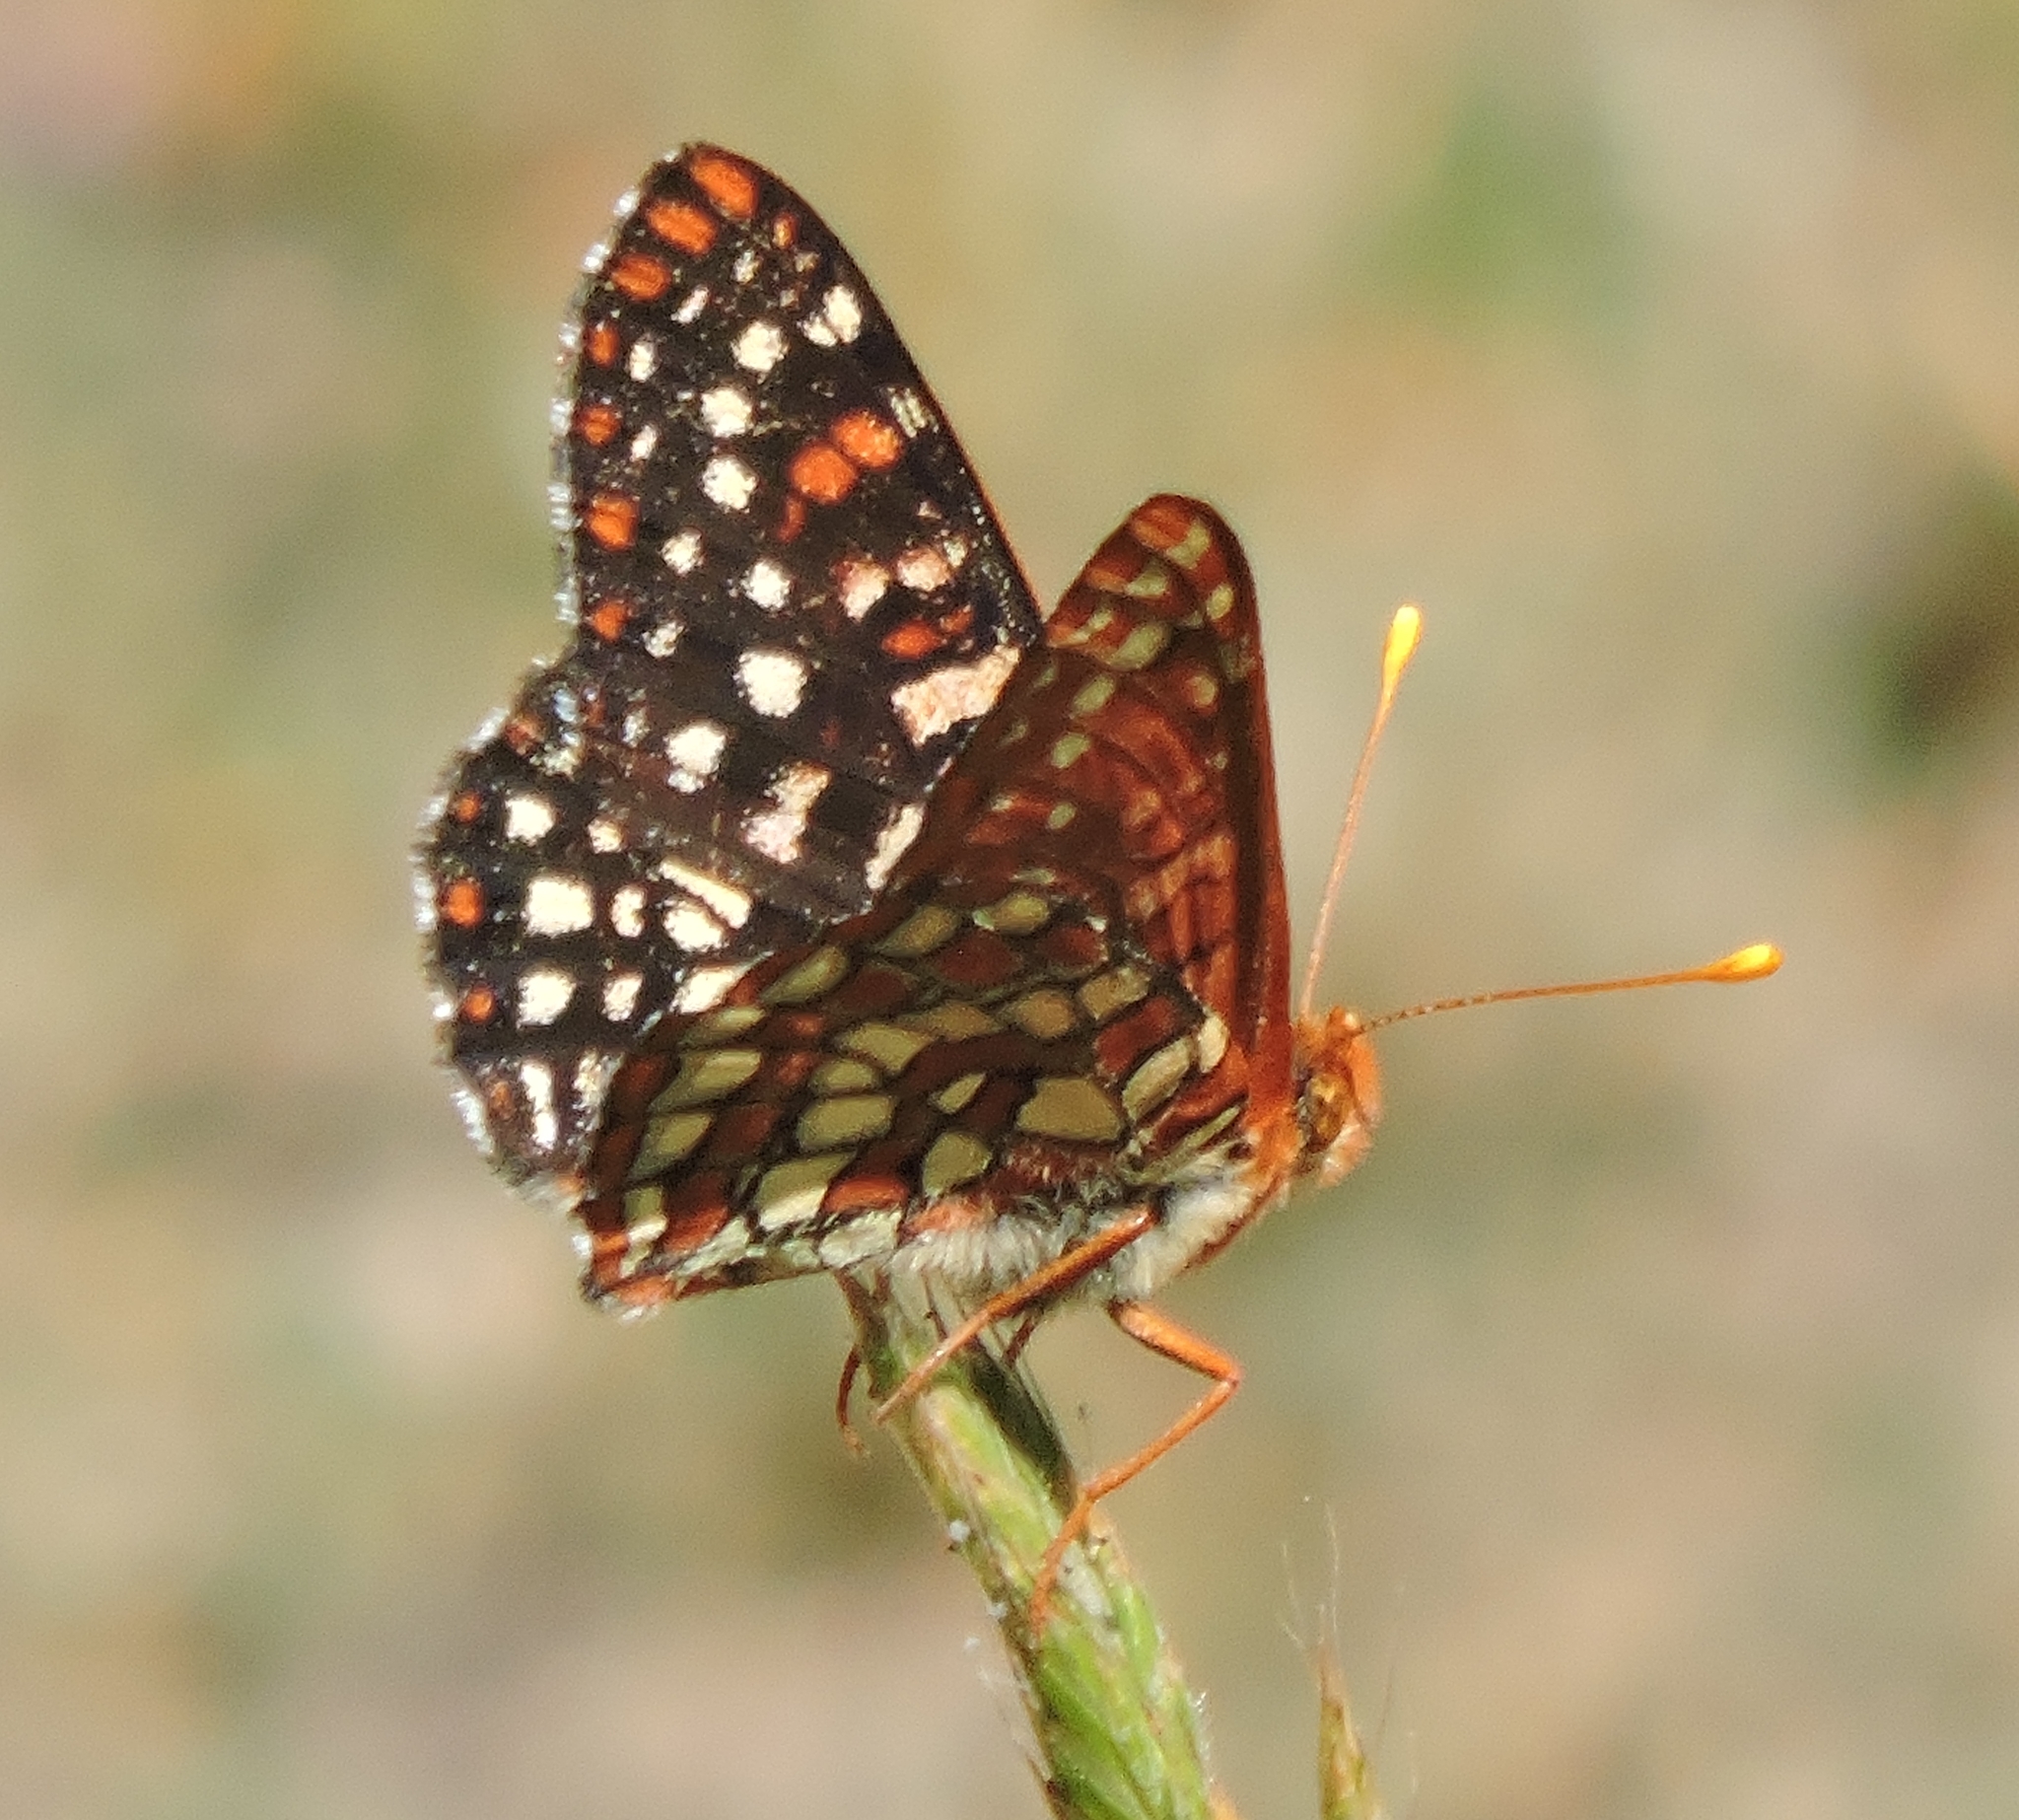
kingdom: Animalia
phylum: Arthropoda
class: Insecta
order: Lepidoptera
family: Nymphalidae
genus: Occidryas
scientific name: Occidryas chalcedona
